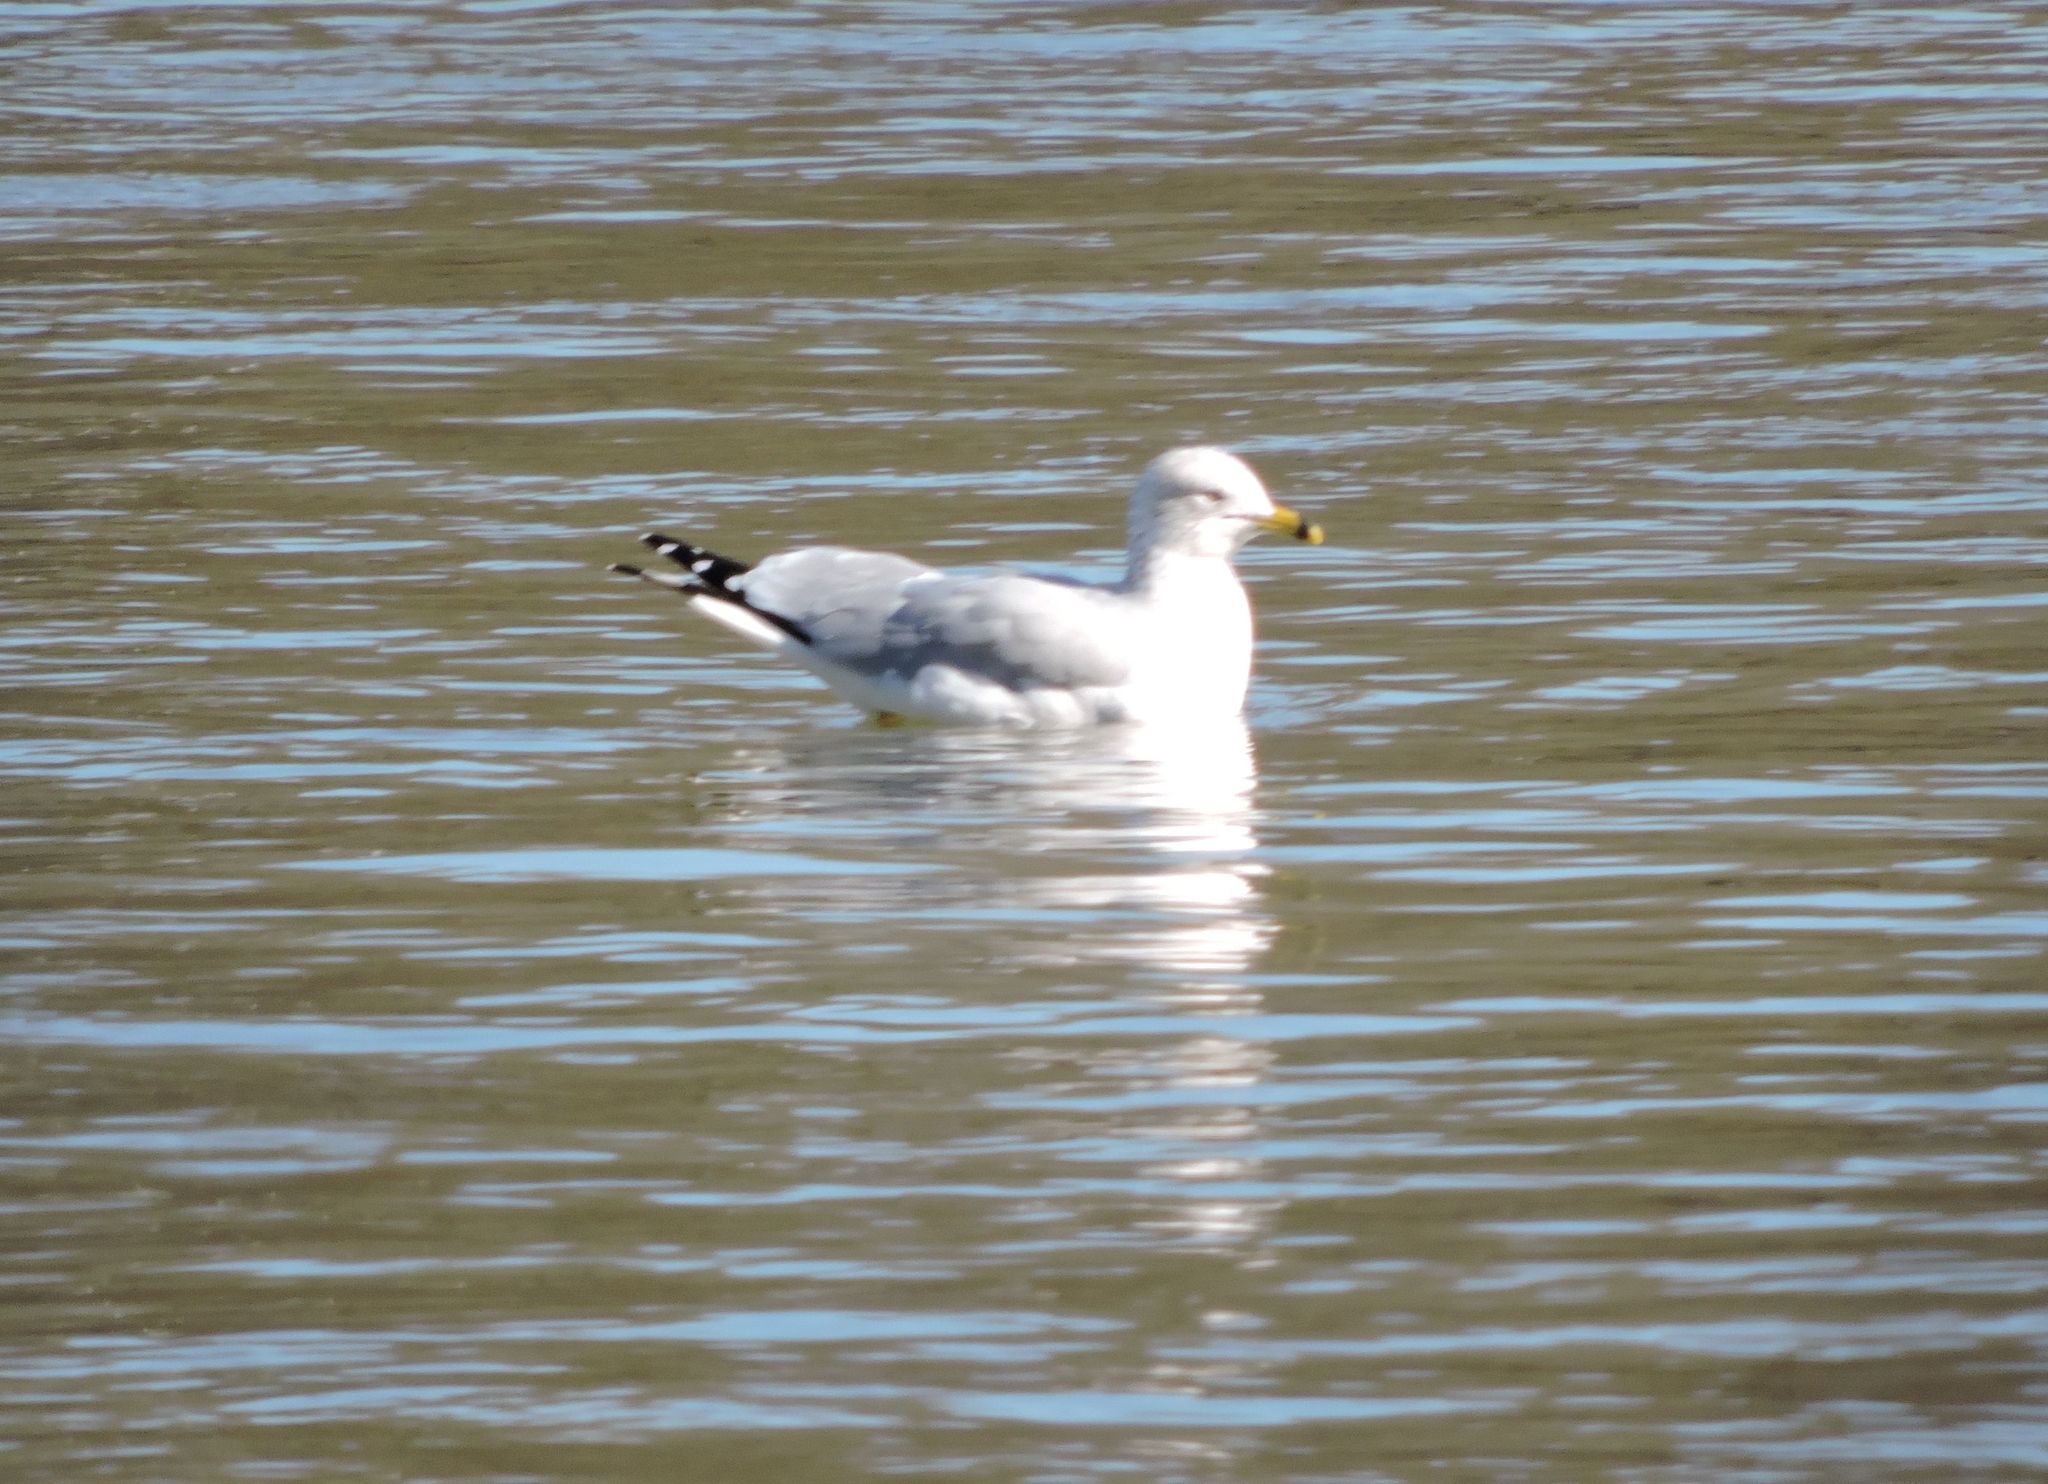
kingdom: Animalia
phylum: Chordata
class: Aves
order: Charadriiformes
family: Laridae
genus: Larus
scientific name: Larus delawarensis
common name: Ring-billed gull
